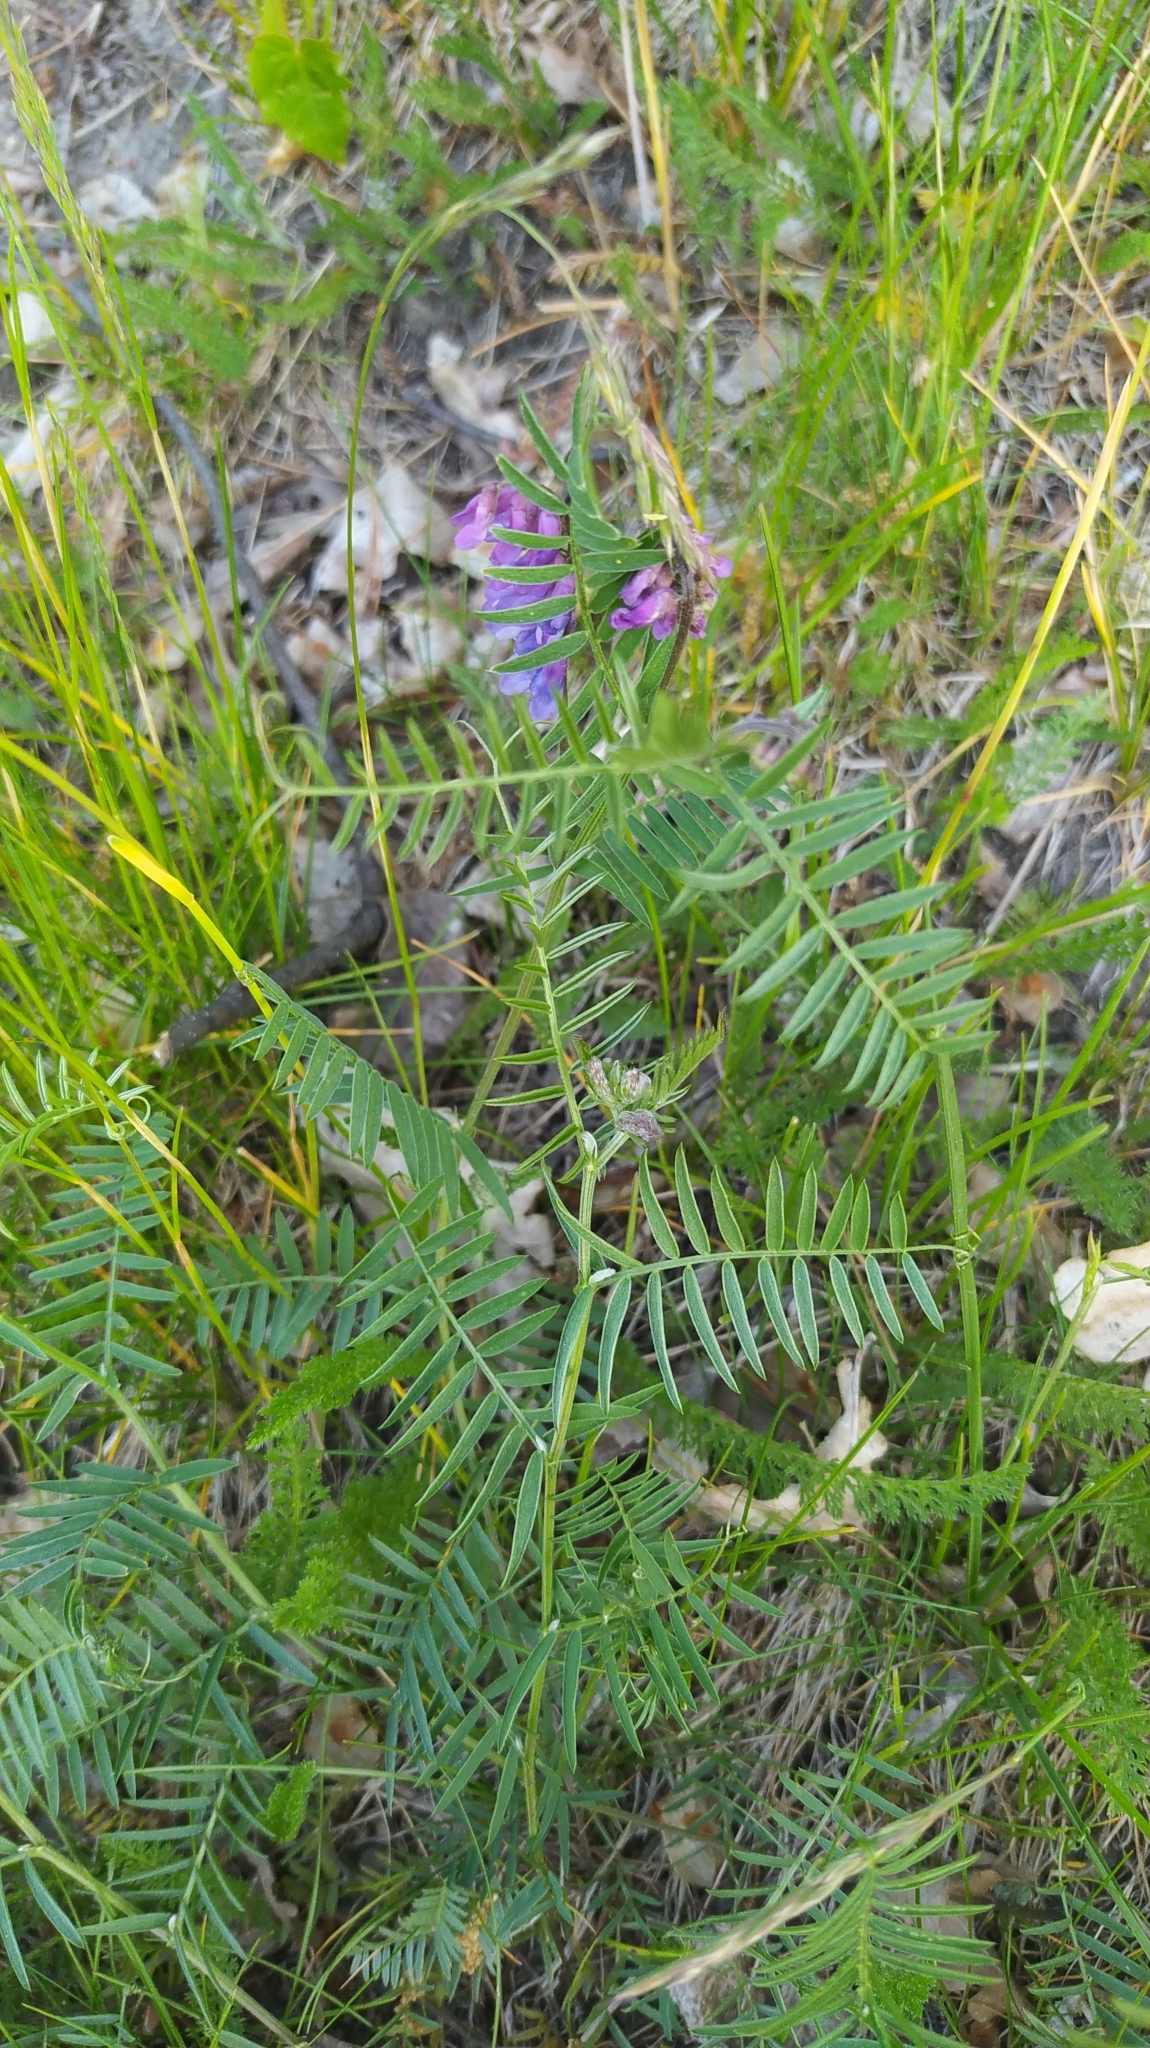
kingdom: Plantae
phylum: Tracheophyta
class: Magnoliopsida
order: Fabales
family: Fabaceae
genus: Vicia
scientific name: Vicia cracca
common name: Bird vetch
